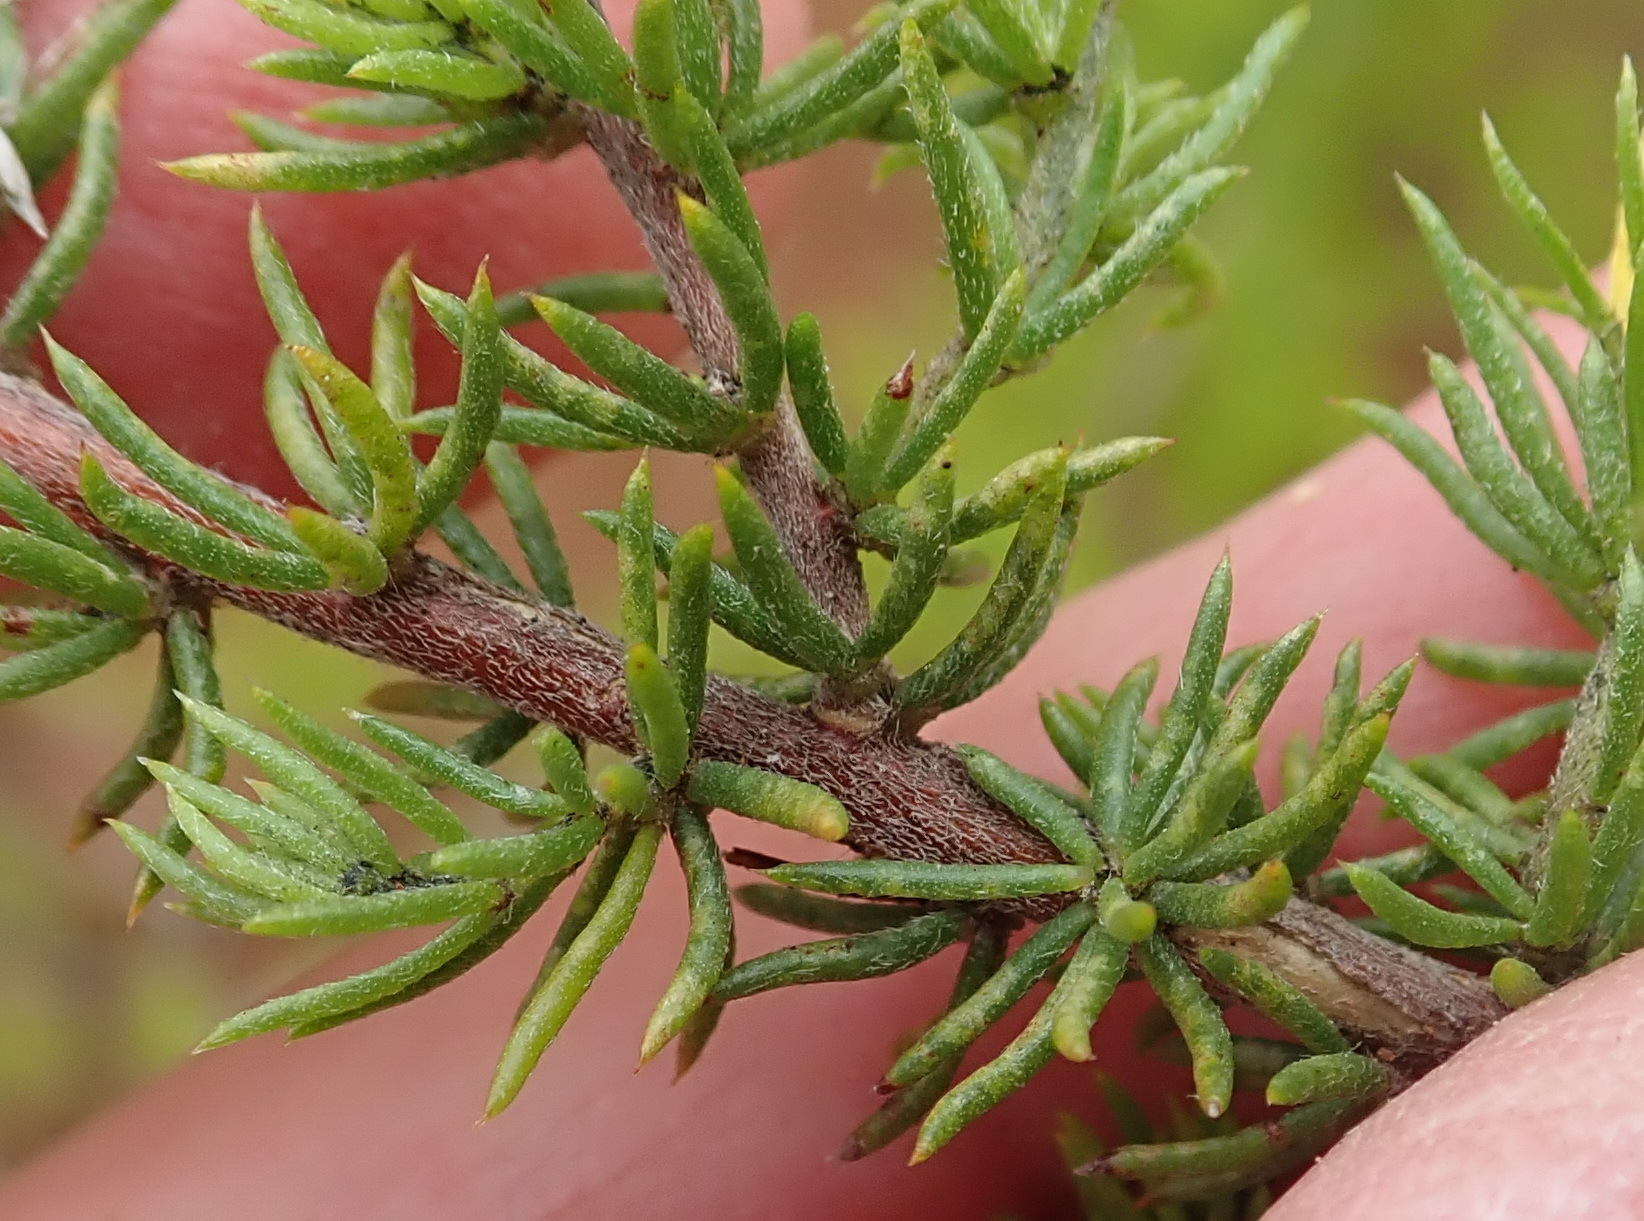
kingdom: Plantae
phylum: Tracheophyta
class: Magnoliopsida
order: Fabales
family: Fabaceae
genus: Aspalathus
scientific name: Aspalathus asparagoides
